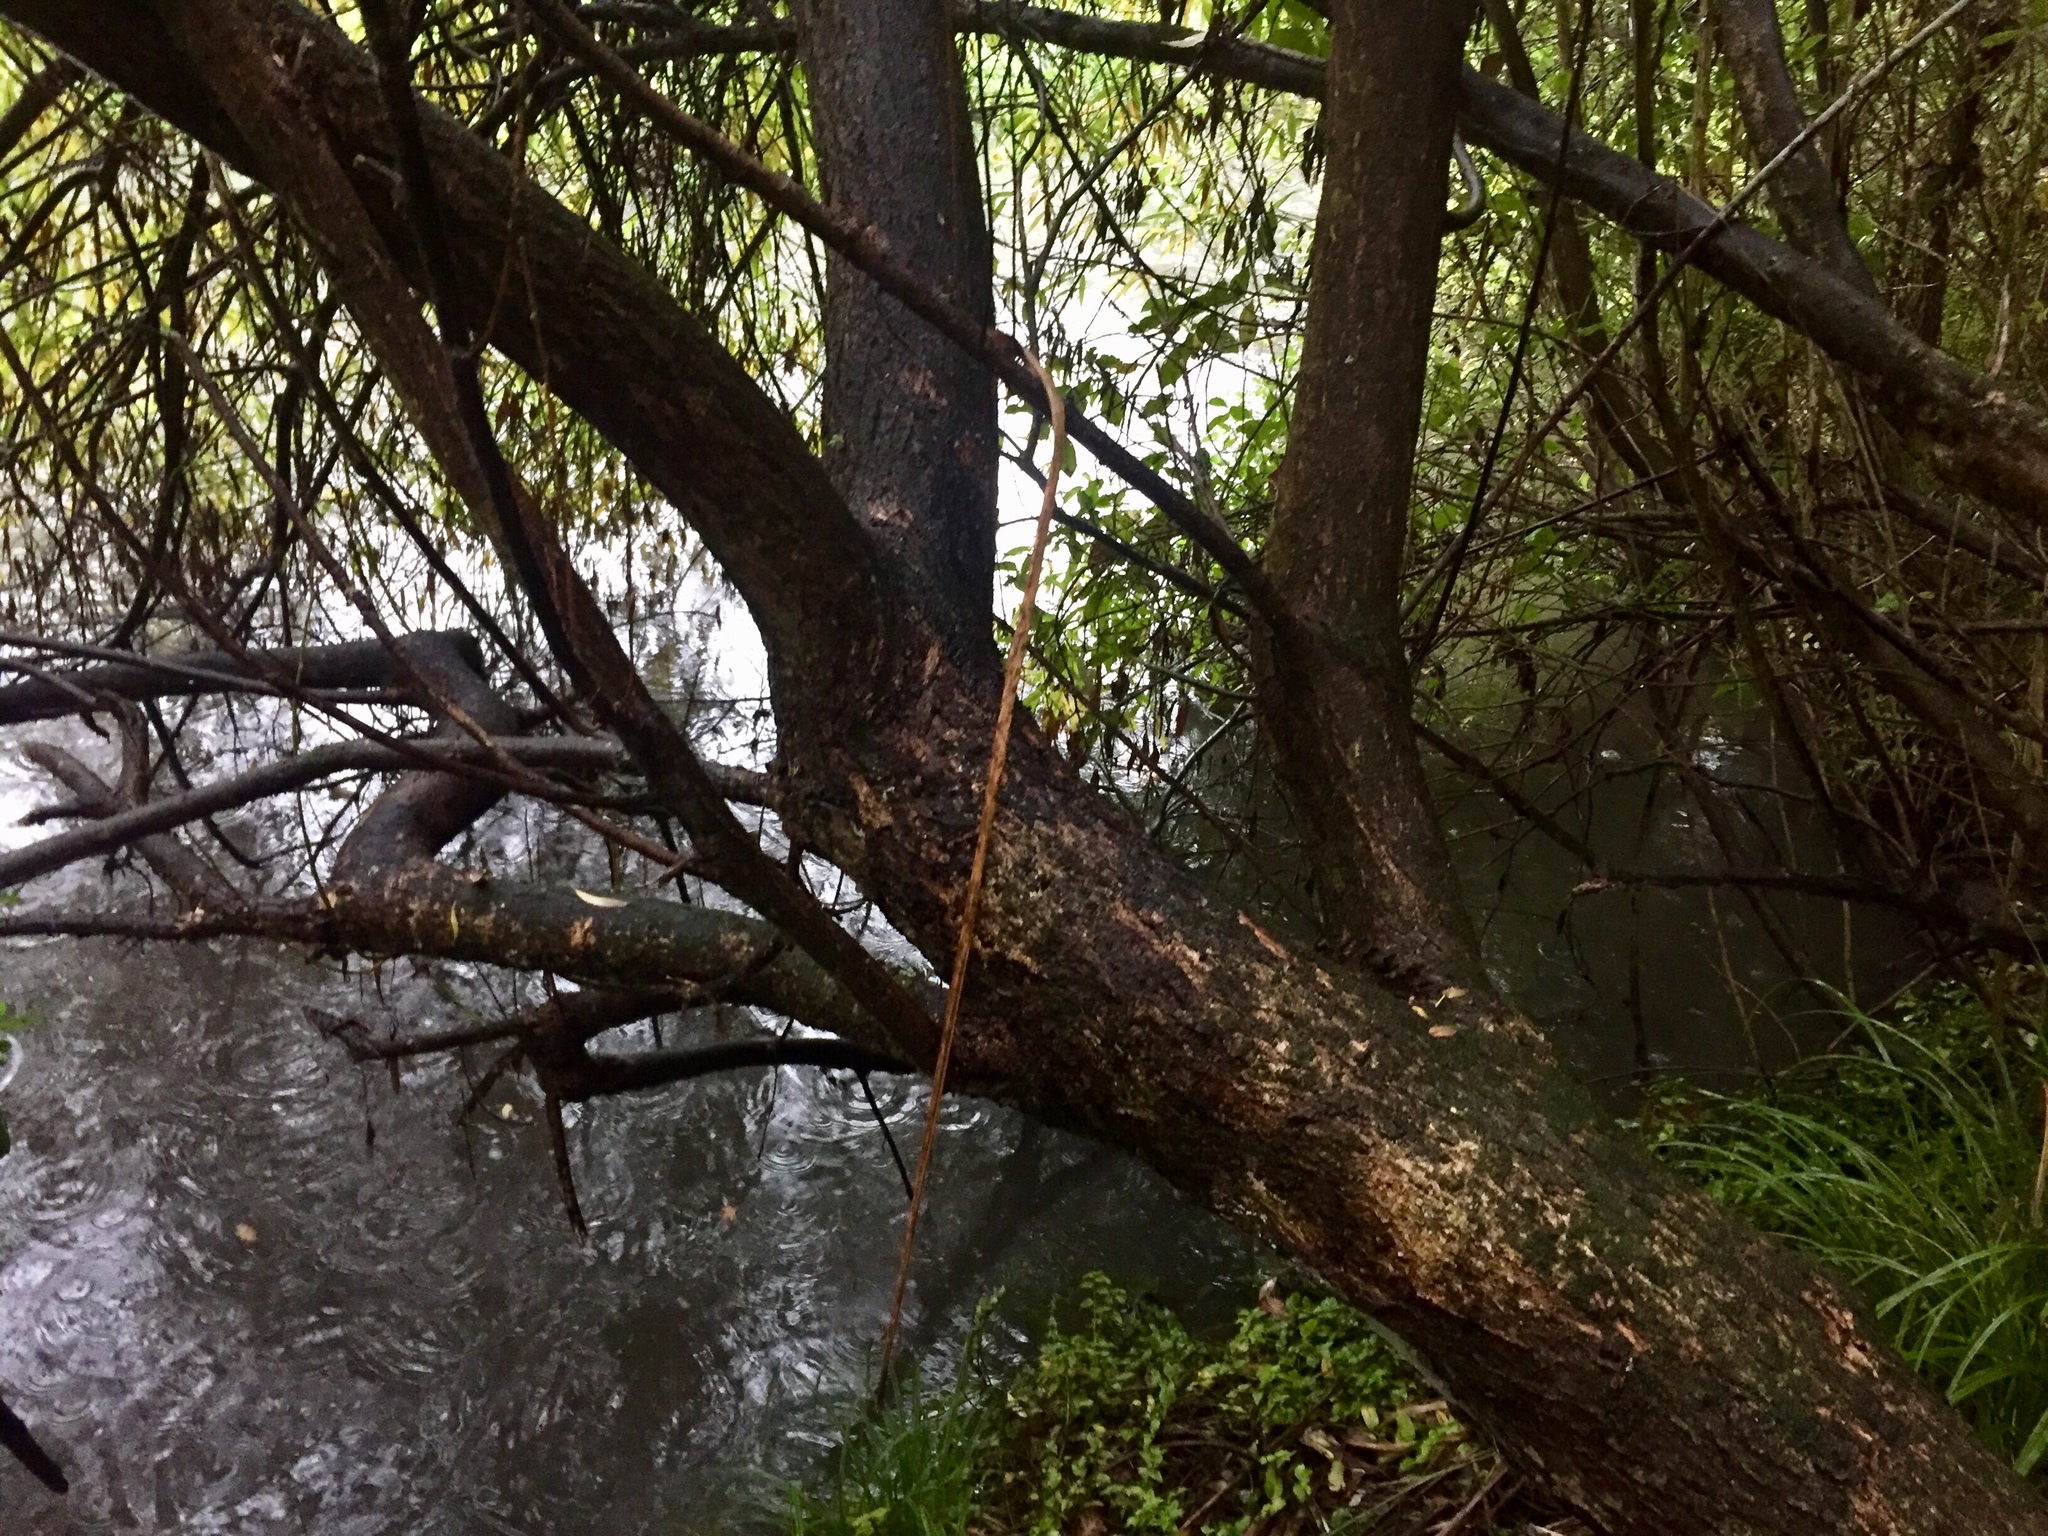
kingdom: Plantae
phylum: Tracheophyta
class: Magnoliopsida
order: Malpighiales
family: Salicaceae
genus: Salix
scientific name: Salix fragilis
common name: Crack willow
